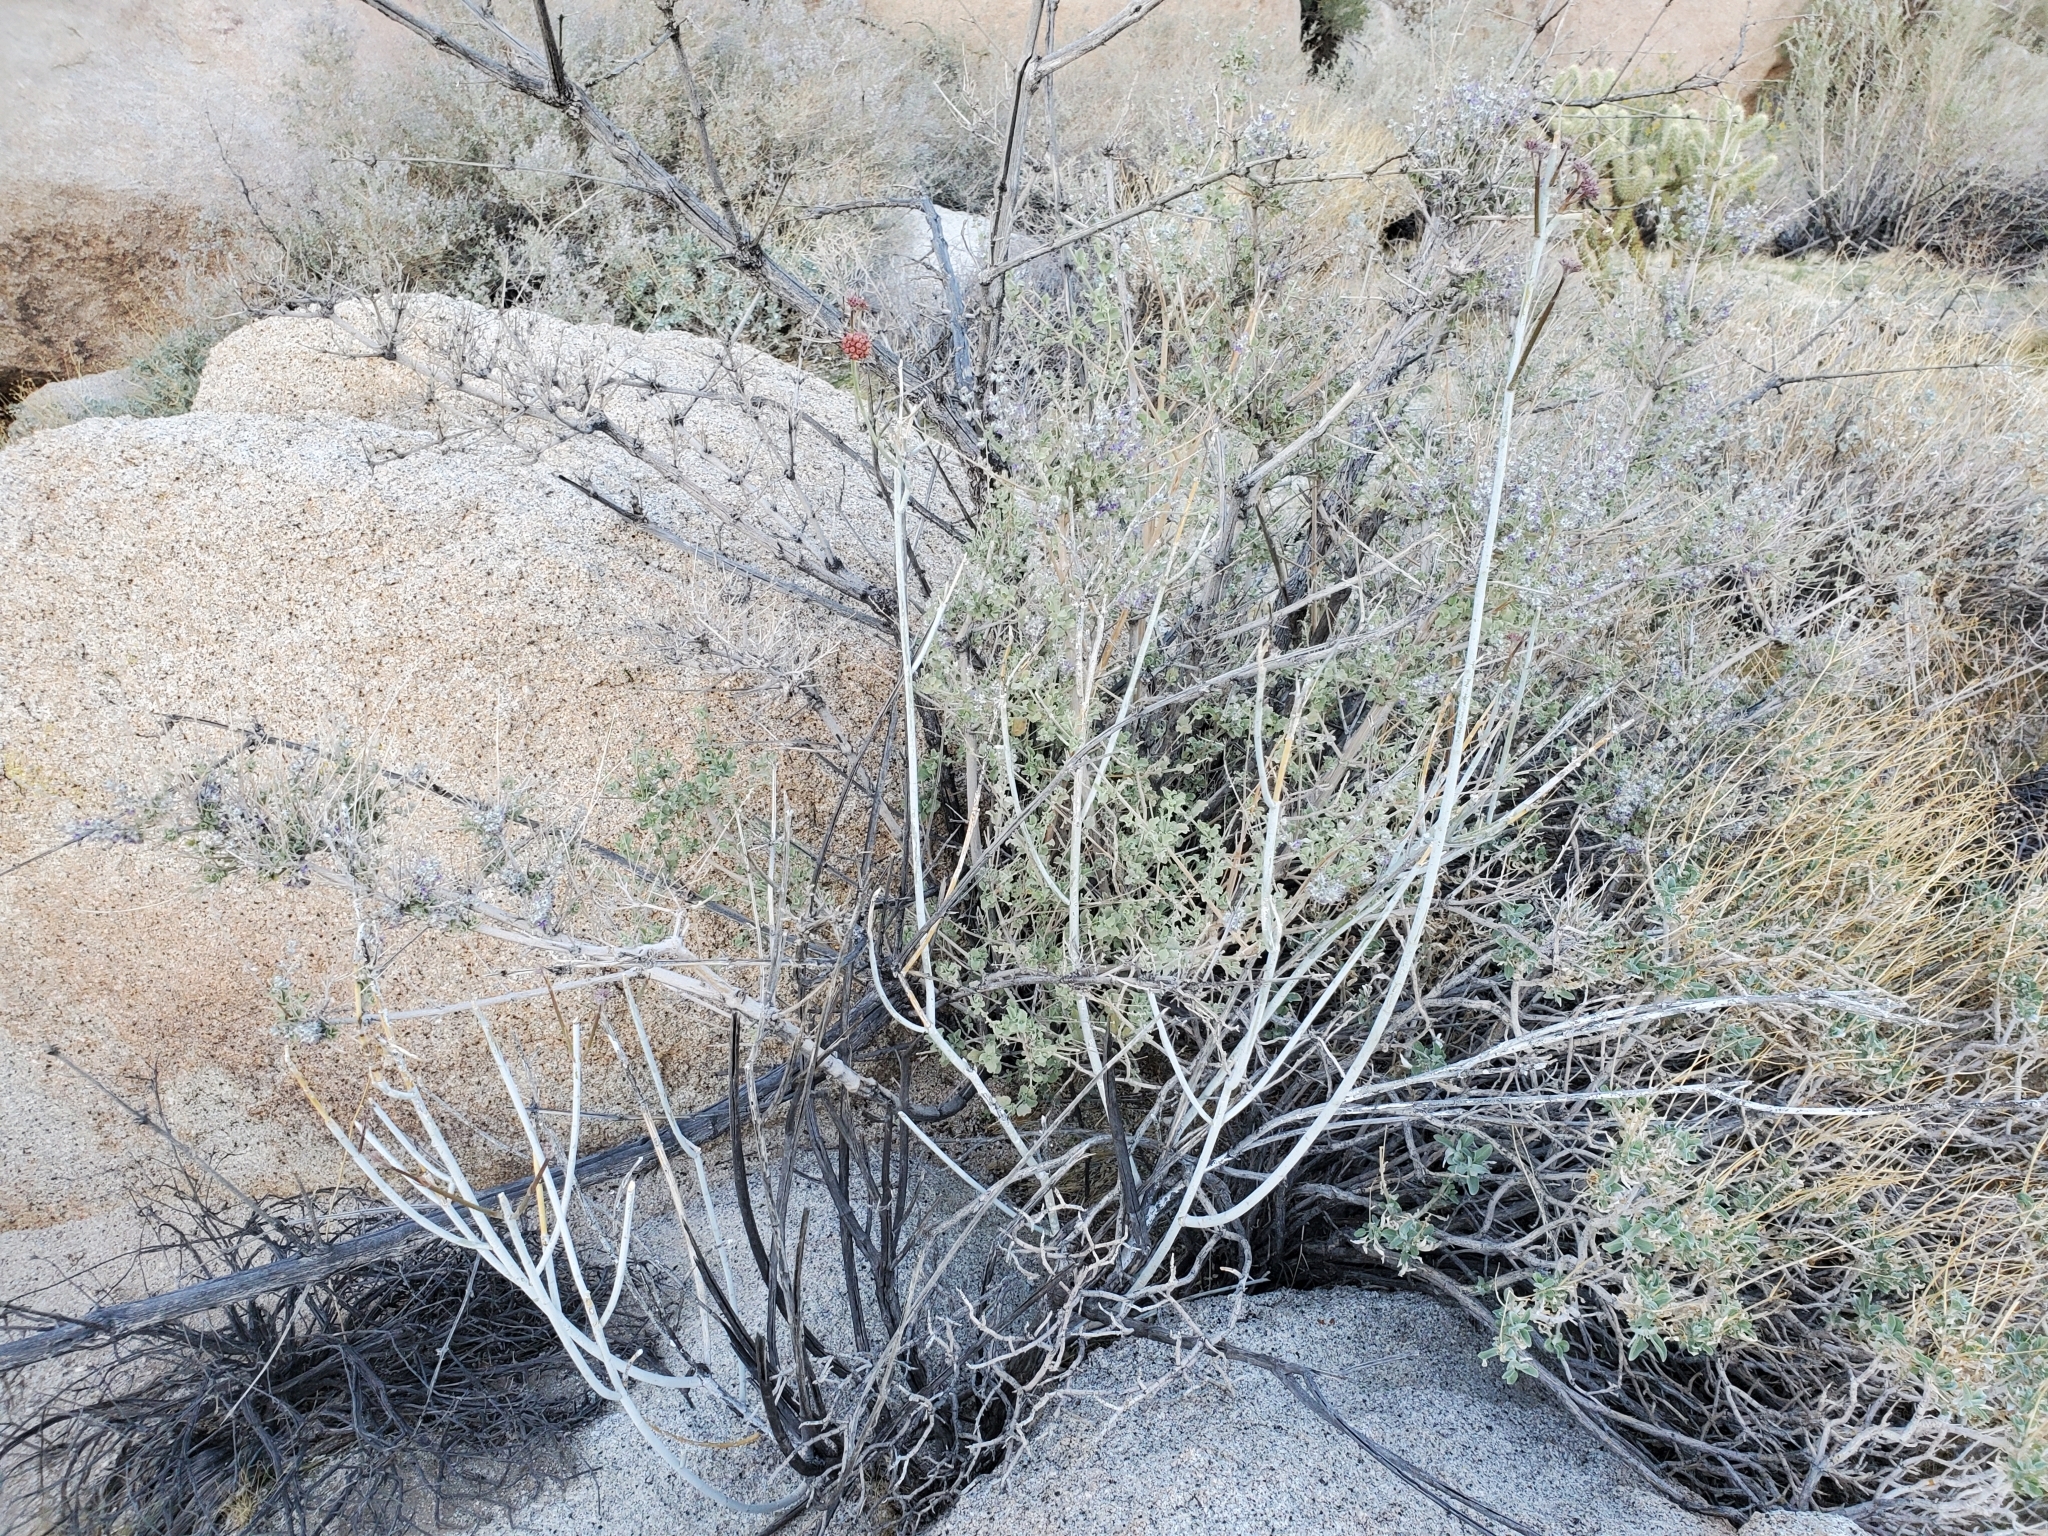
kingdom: Plantae
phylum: Tracheophyta
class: Magnoliopsida
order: Gentianales
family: Apocynaceae
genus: Asclepias
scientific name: Asclepias albicans
